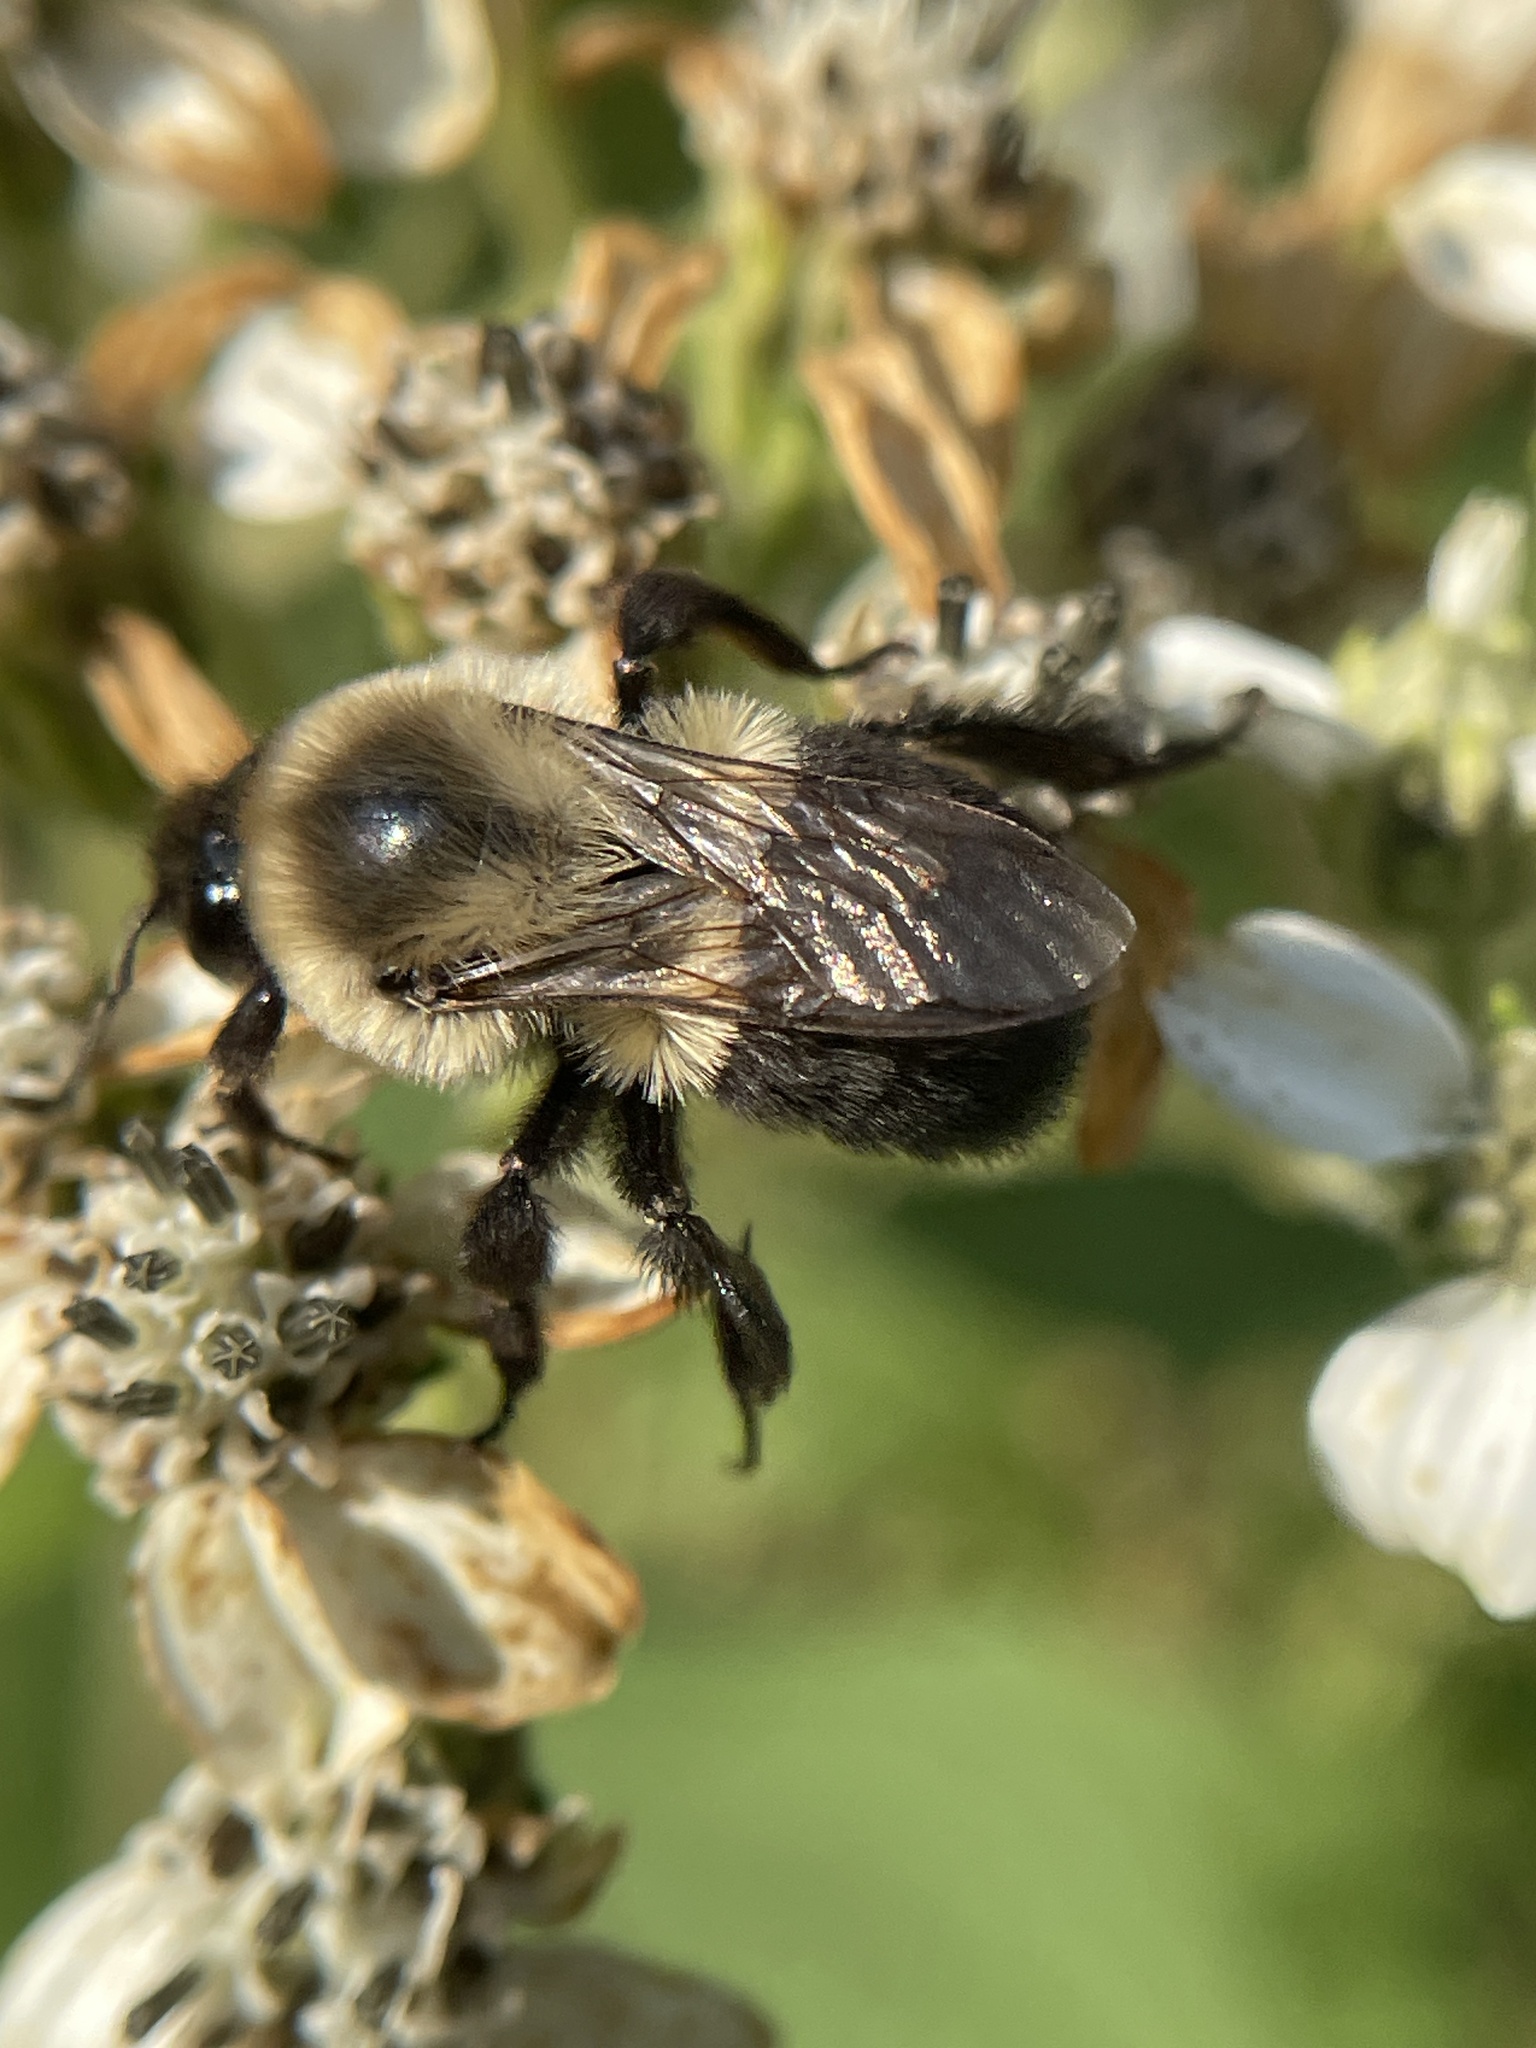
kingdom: Animalia
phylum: Arthropoda
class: Insecta
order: Hymenoptera
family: Apidae
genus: Bombus
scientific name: Bombus impatiens
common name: Common eastern bumble bee
